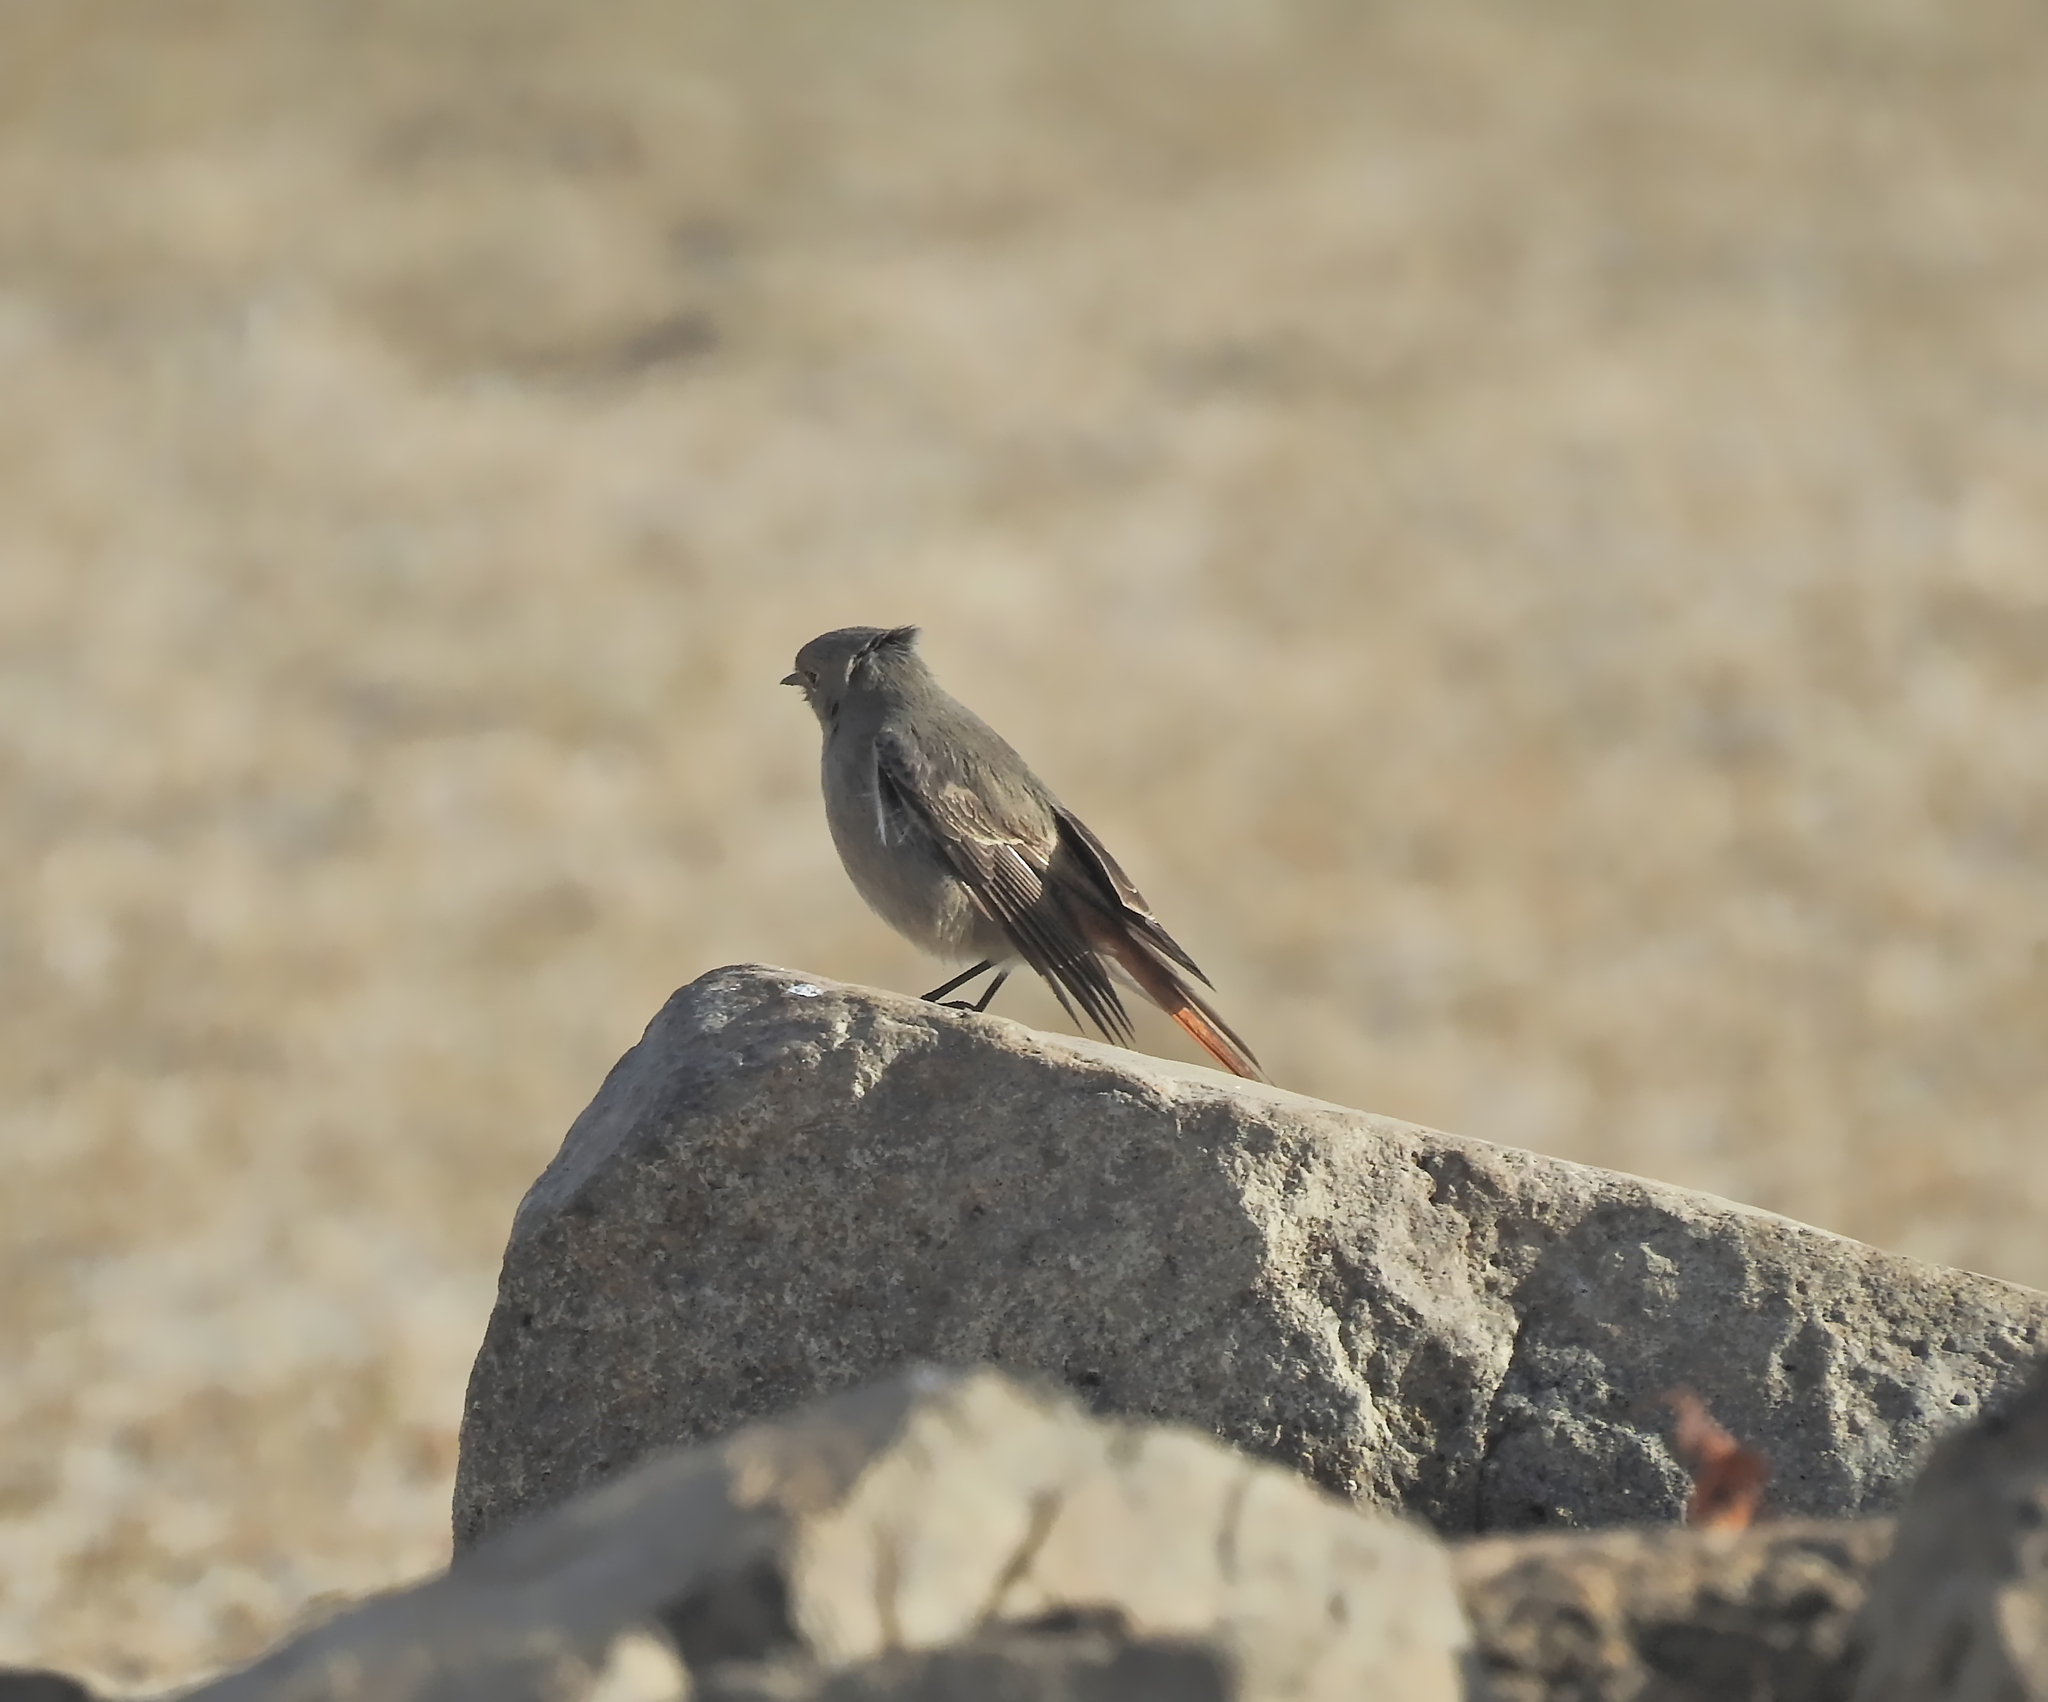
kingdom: Animalia
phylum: Chordata
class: Aves
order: Passeriformes
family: Muscicapidae
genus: Phoenicurus
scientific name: Phoenicurus ochruros
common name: Black redstart
